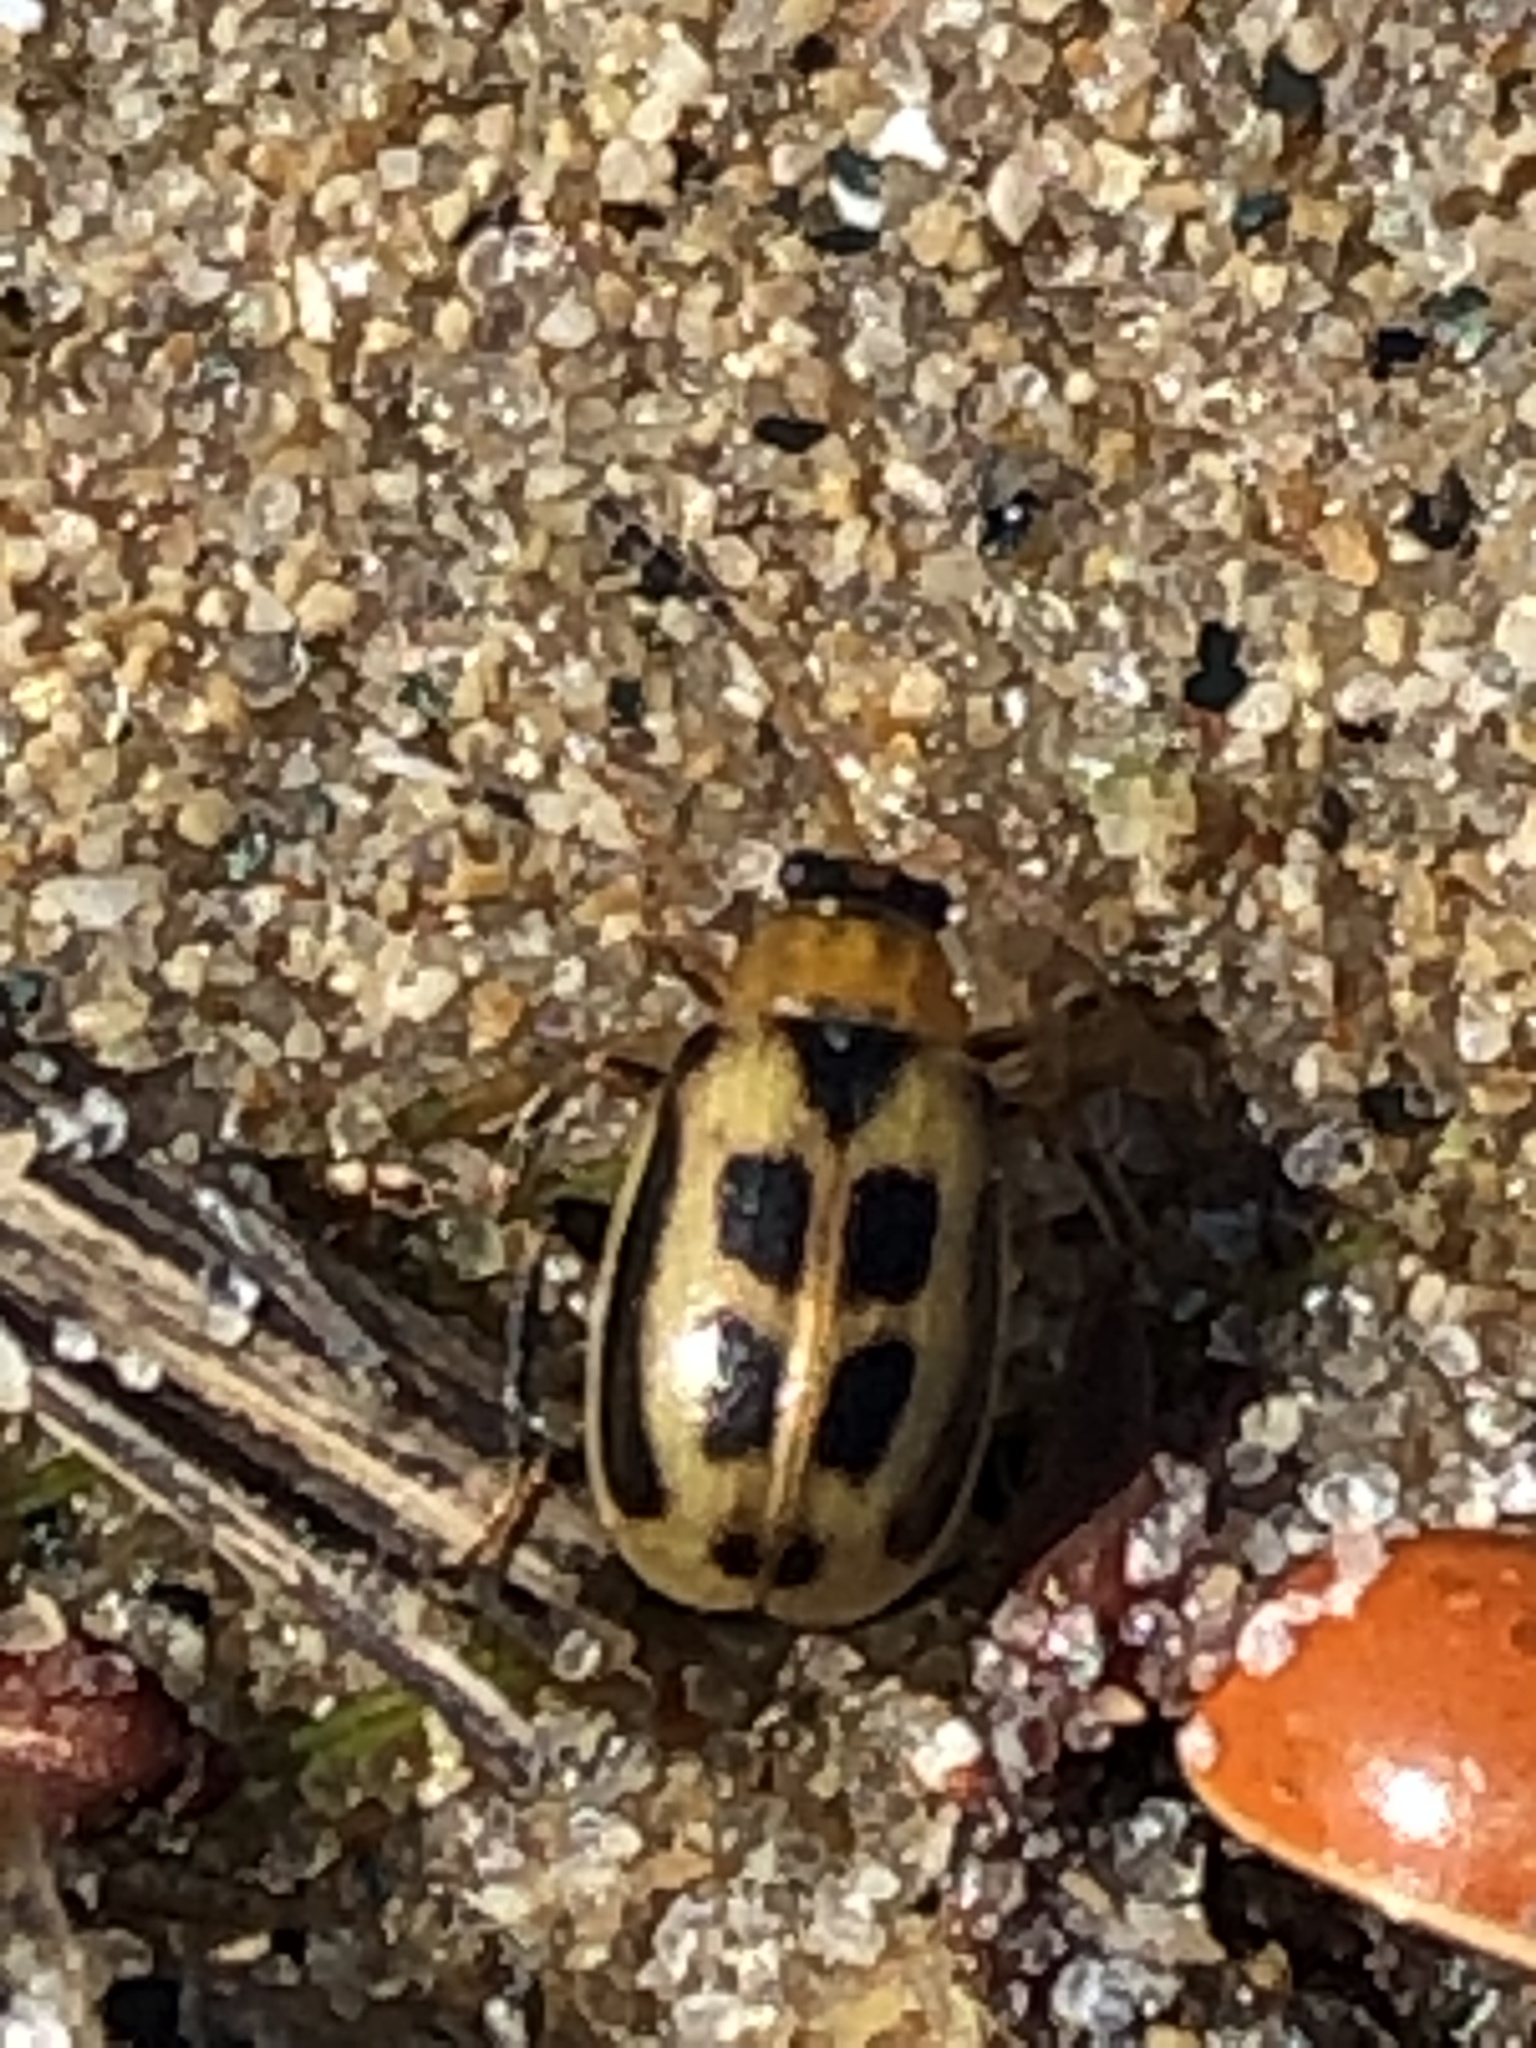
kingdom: Animalia
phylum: Arthropoda
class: Insecta
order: Coleoptera
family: Chrysomelidae
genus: Cerotoma
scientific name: Cerotoma trifurcata
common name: Bean leaf beetle
